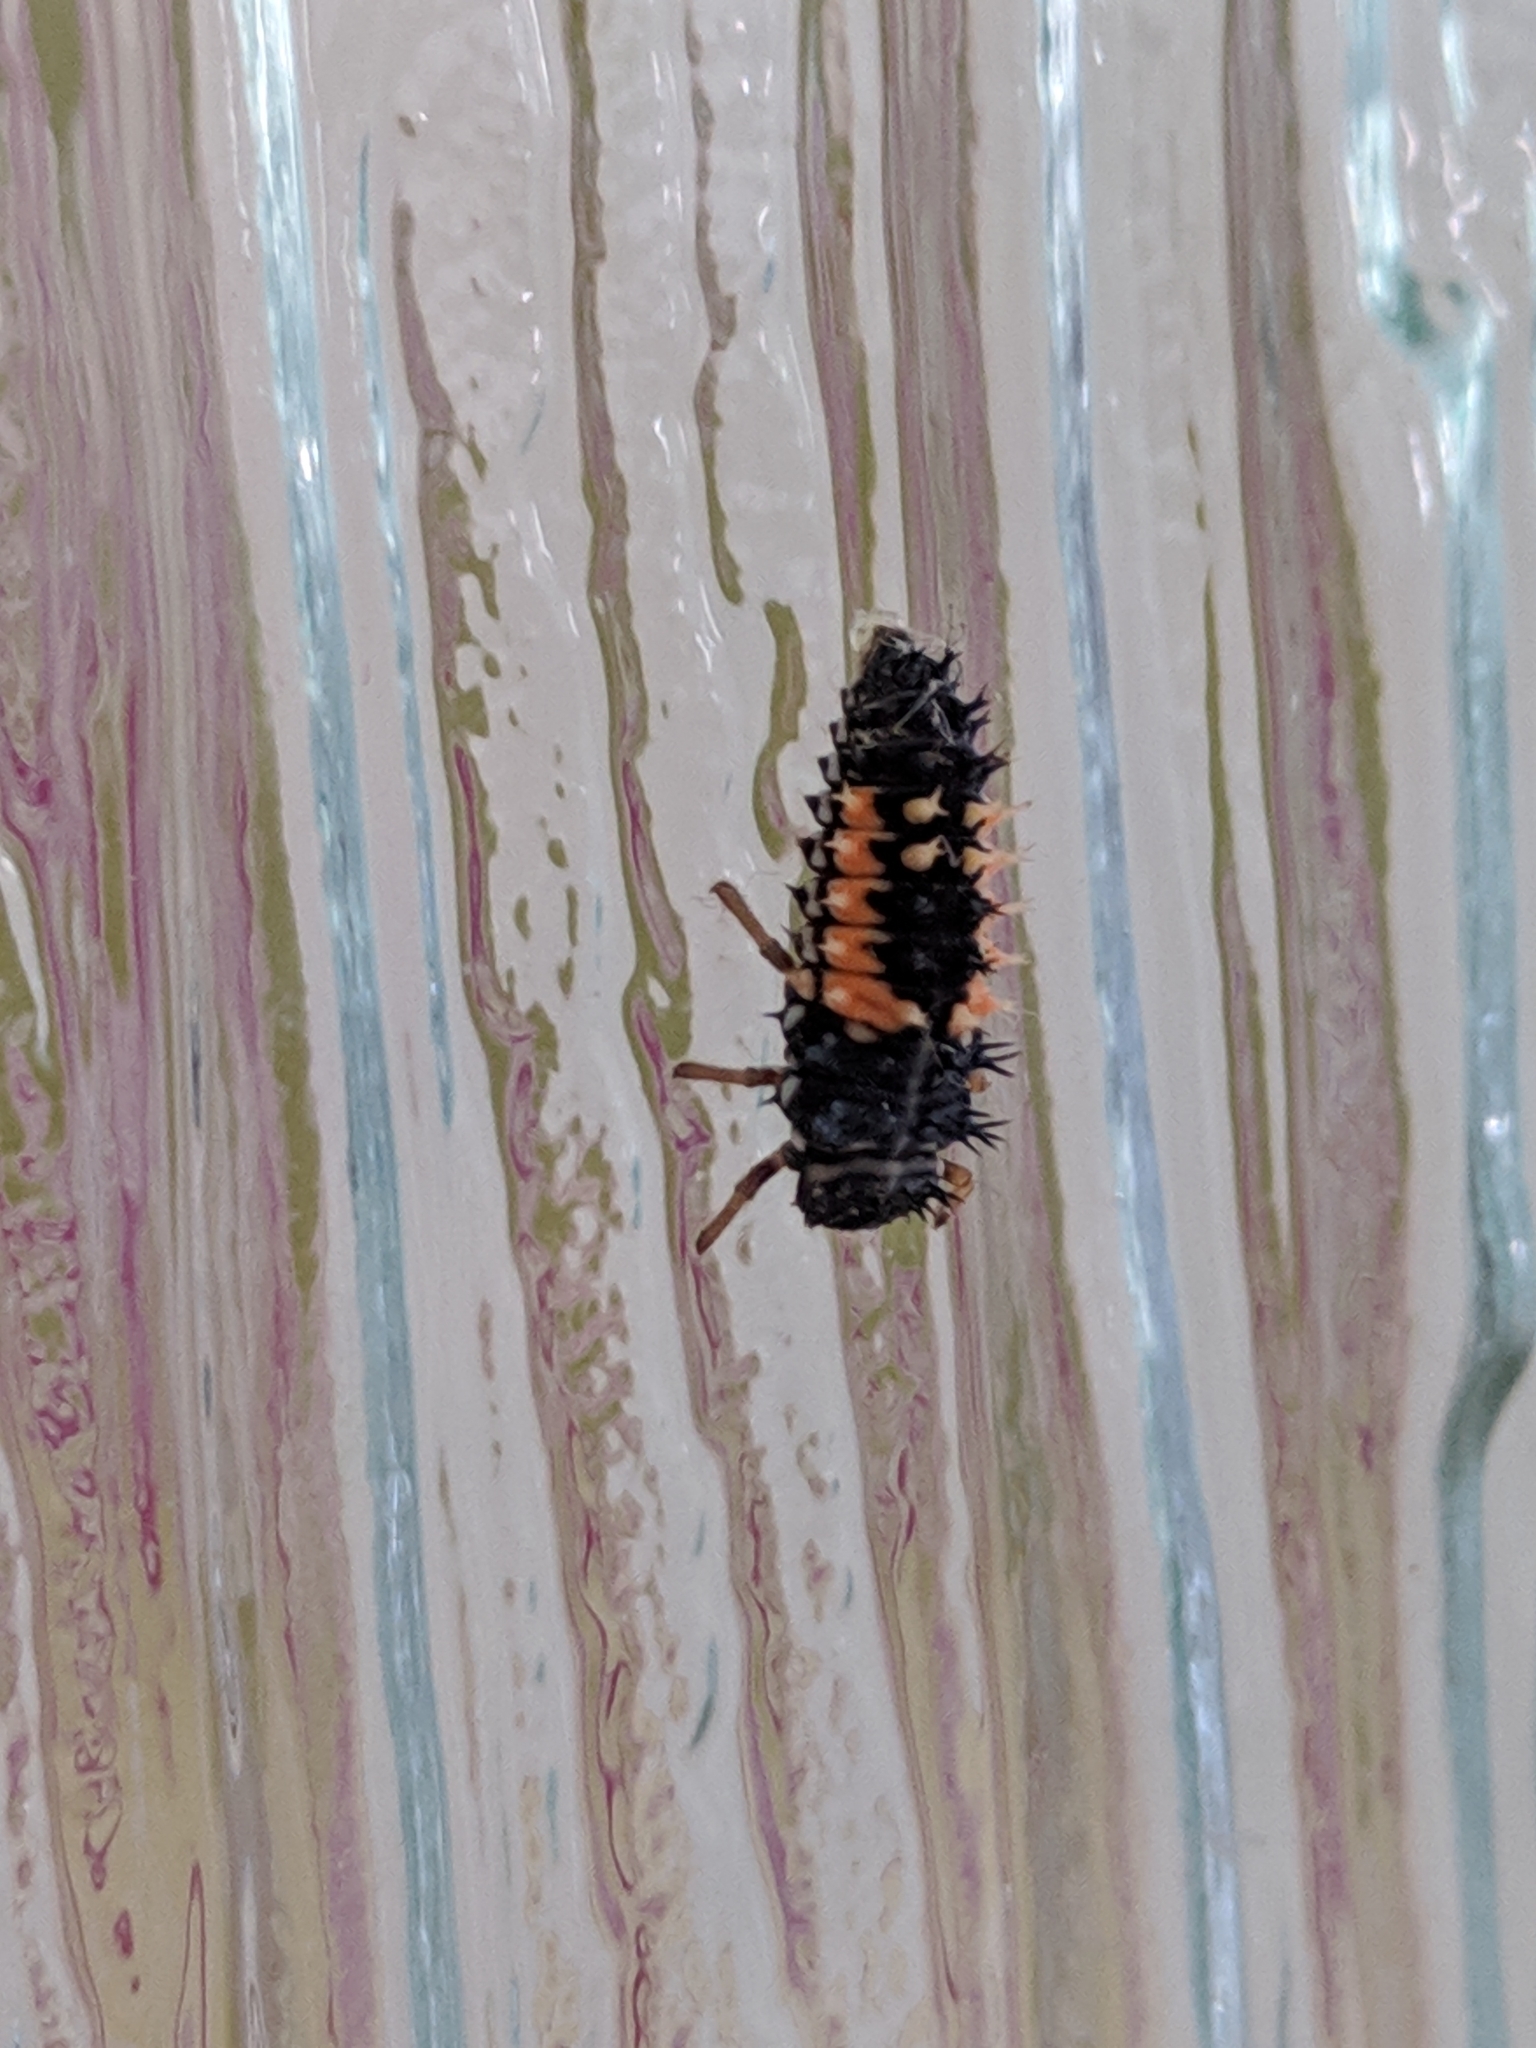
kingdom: Animalia
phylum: Arthropoda
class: Insecta
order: Coleoptera
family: Coccinellidae
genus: Harmonia
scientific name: Harmonia axyridis
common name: Harlequin ladybird
